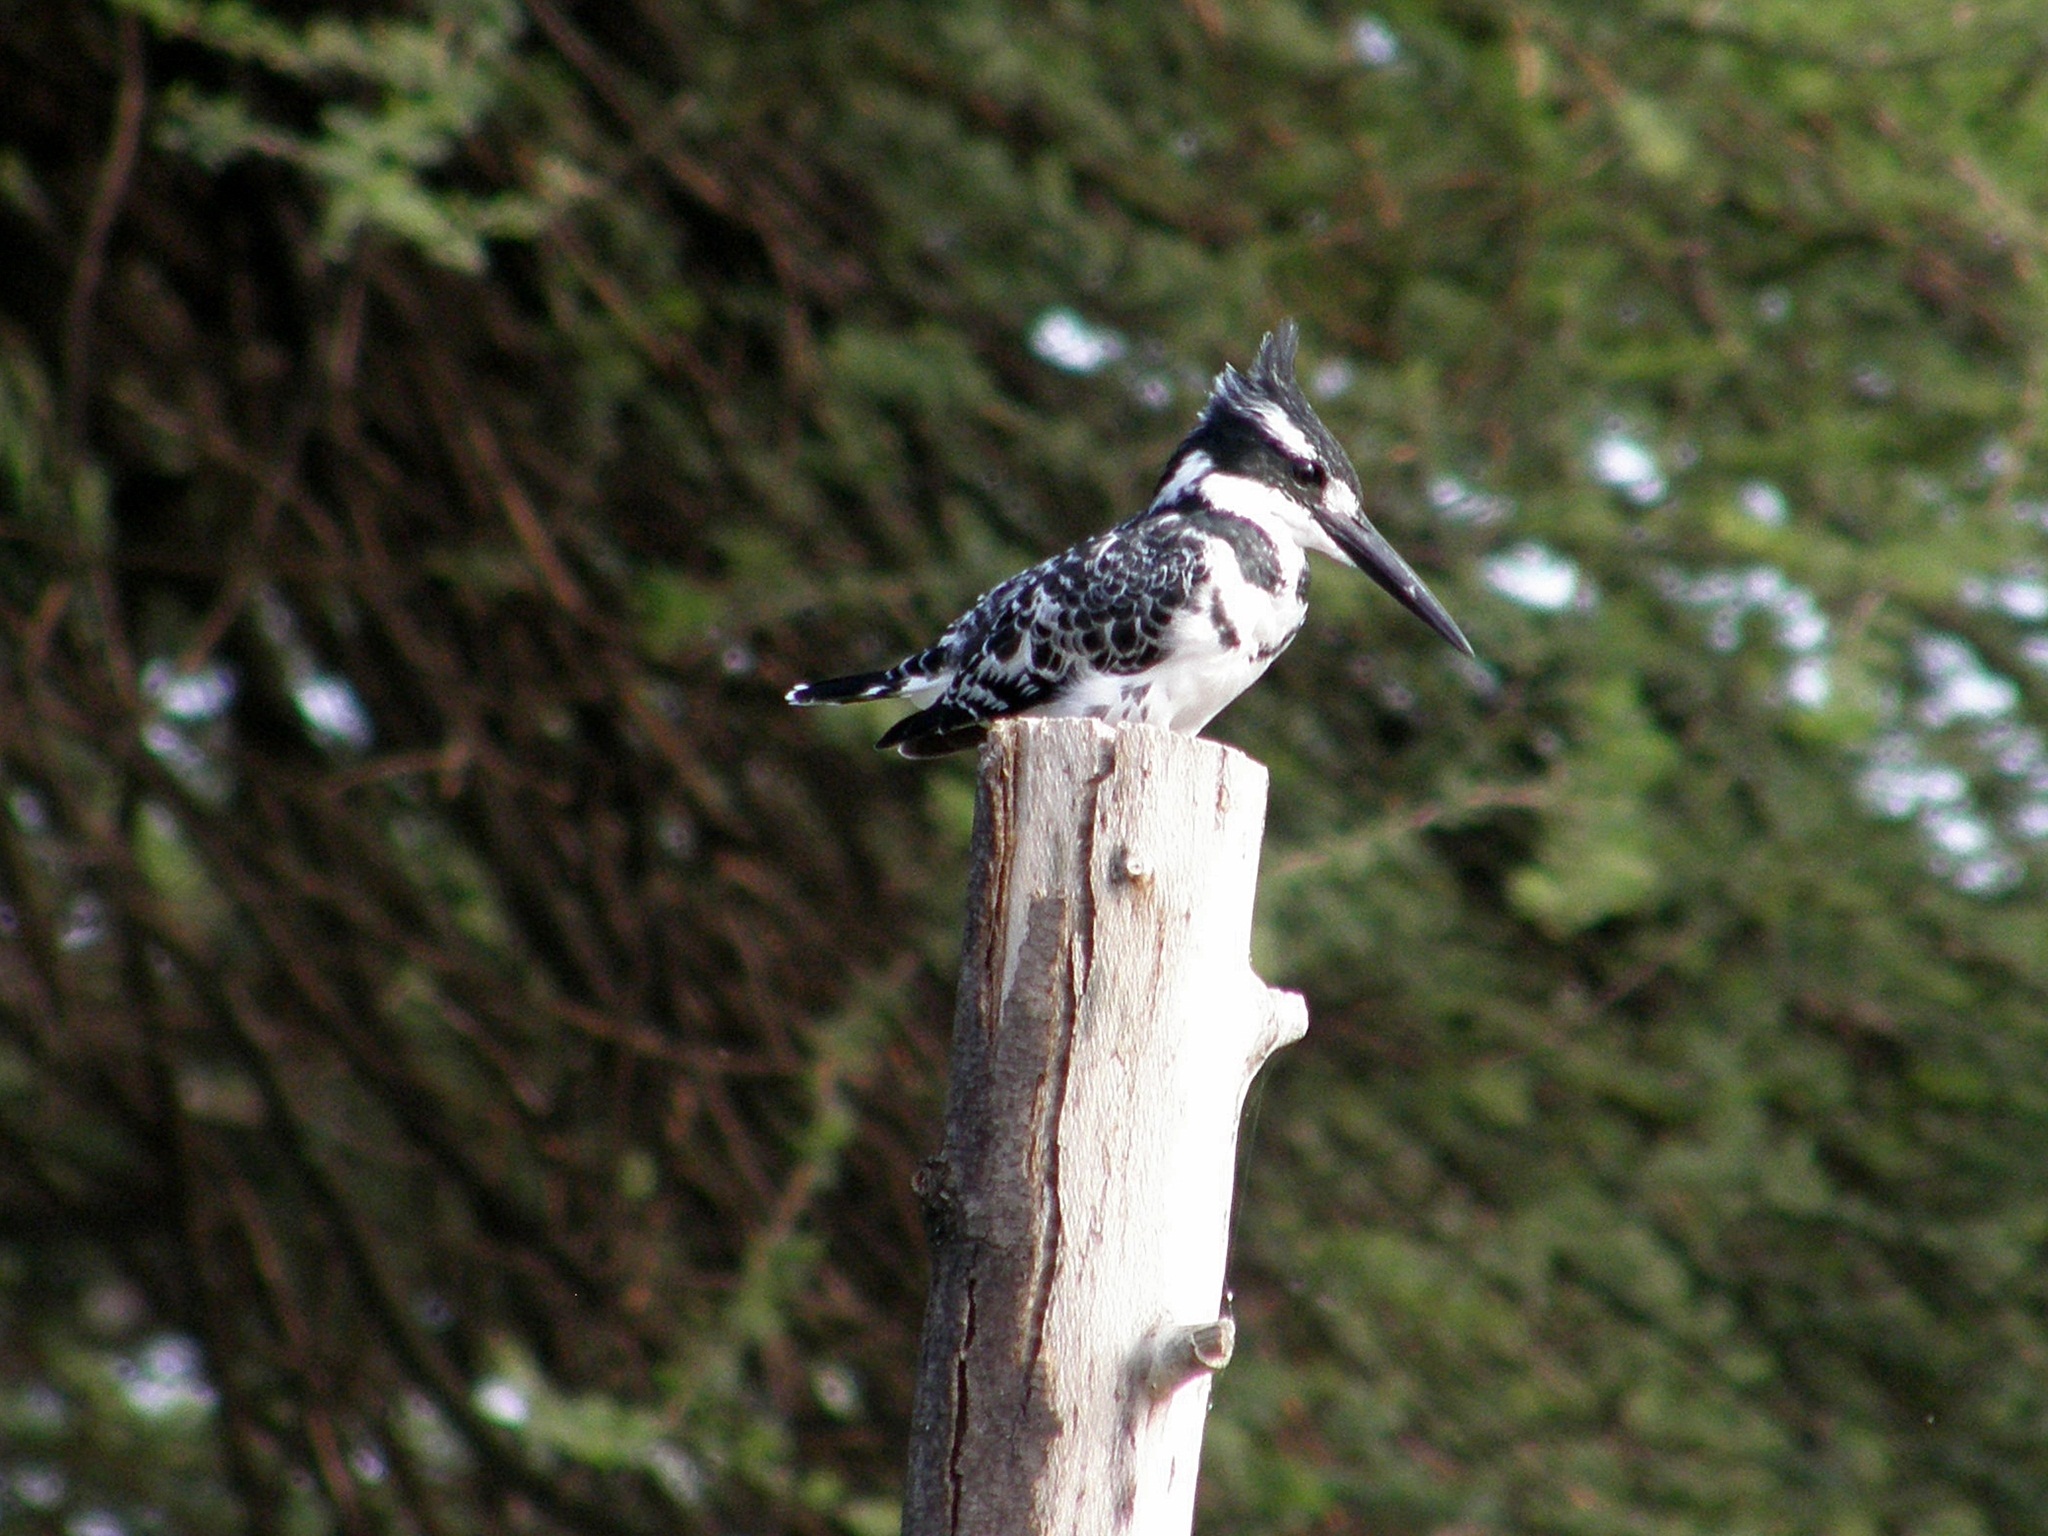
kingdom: Animalia
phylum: Chordata
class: Aves
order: Coraciiformes
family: Alcedinidae
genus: Ceryle
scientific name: Ceryle rudis
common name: Pied kingfisher
